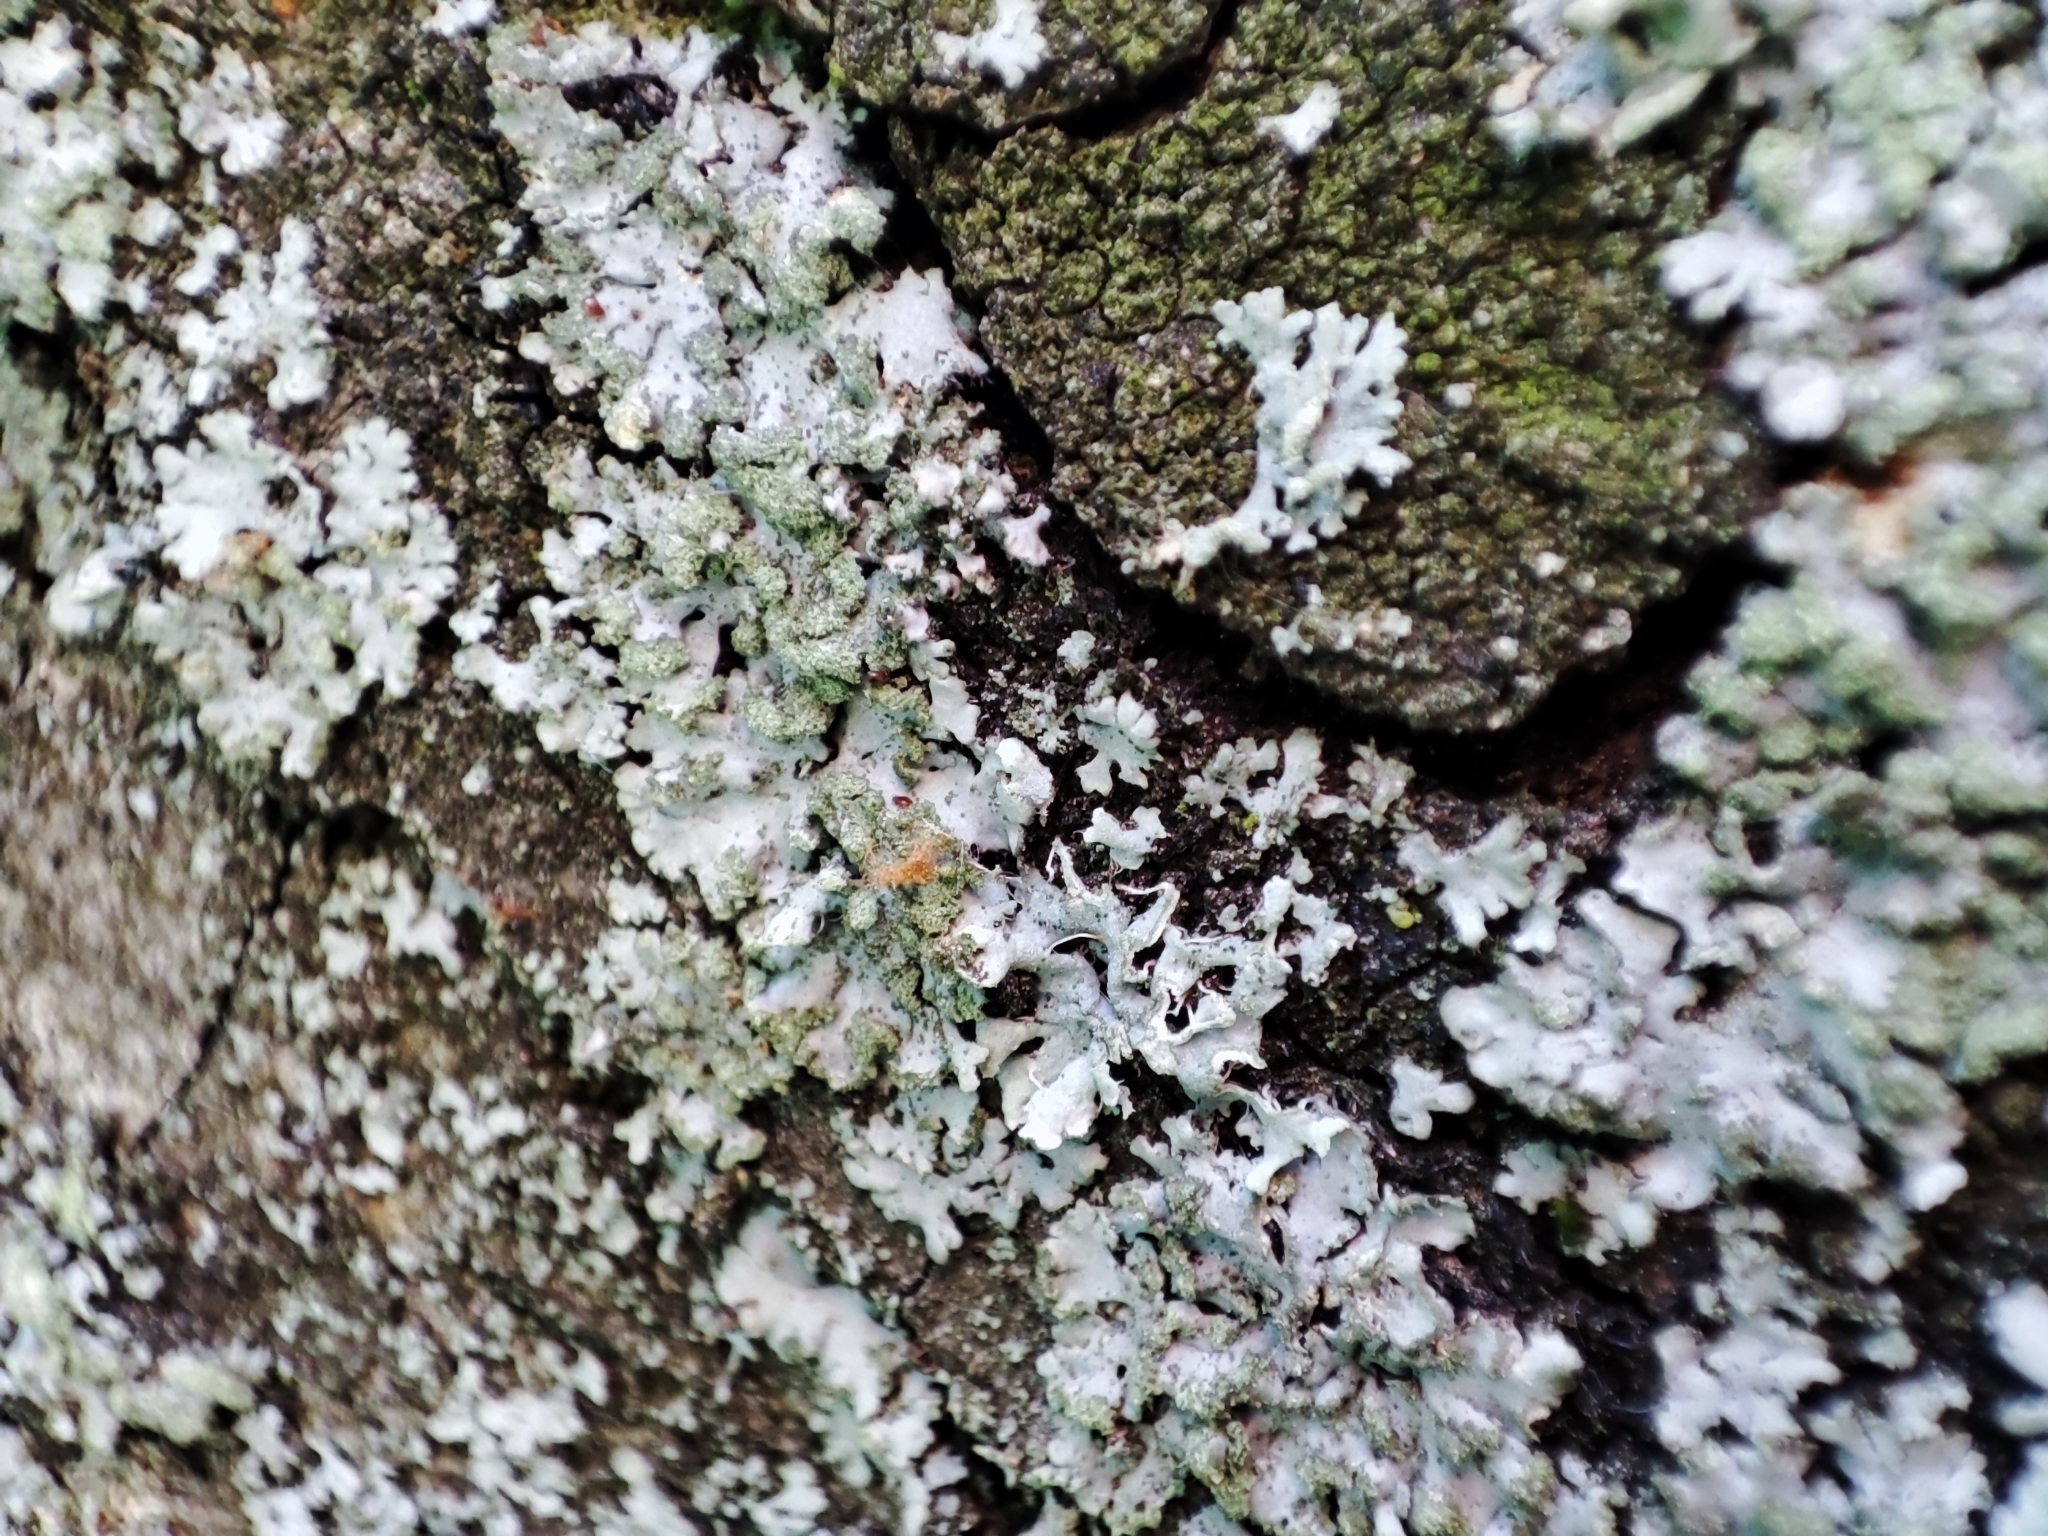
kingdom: Fungi
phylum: Ascomycota
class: Lecanoromycetes
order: Caliciales
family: Physciaceae
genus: Phaeophyscia
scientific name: Phaeophyscia orbicularis
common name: Mealy shadow lichen
